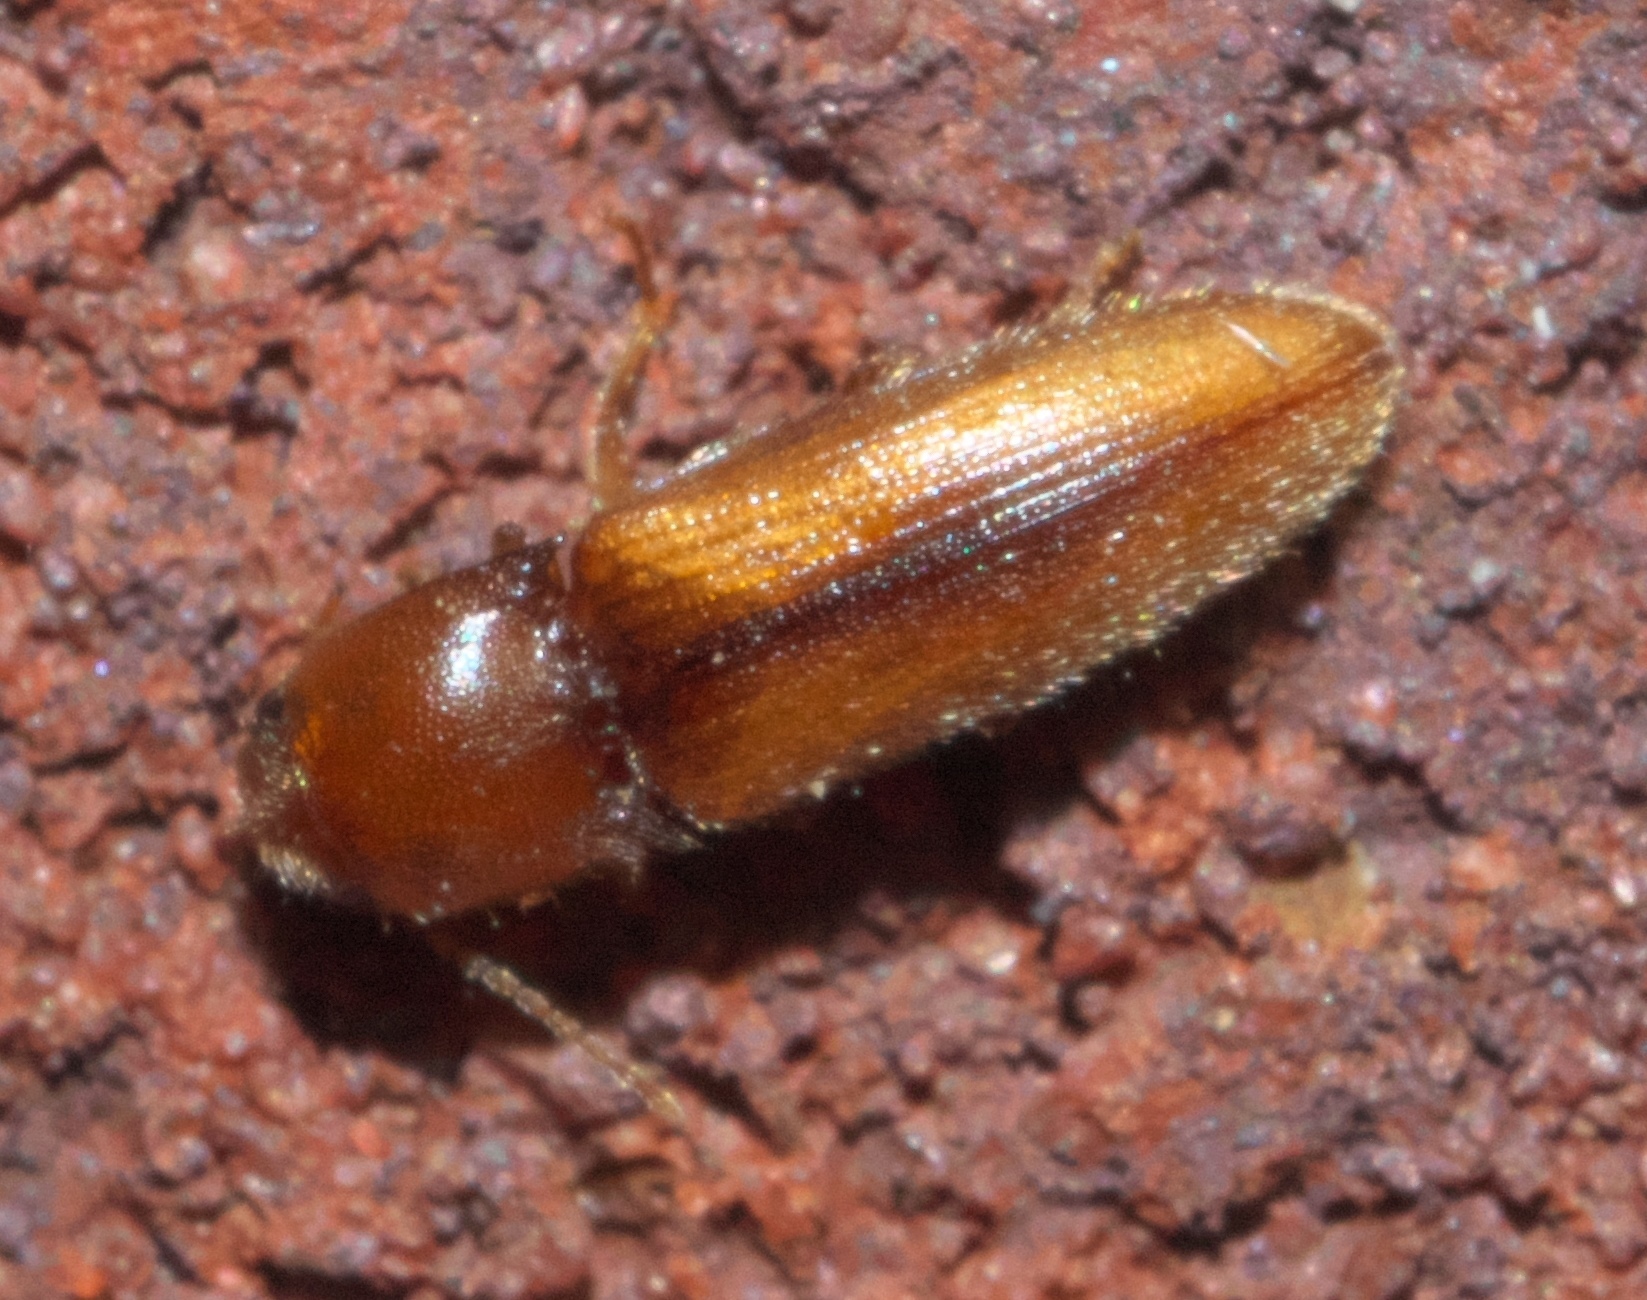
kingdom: Animalia
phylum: Arthropoda
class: Insecta
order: Coleoptera
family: Elateridae
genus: Glyphonyx
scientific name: Glyphonyx
